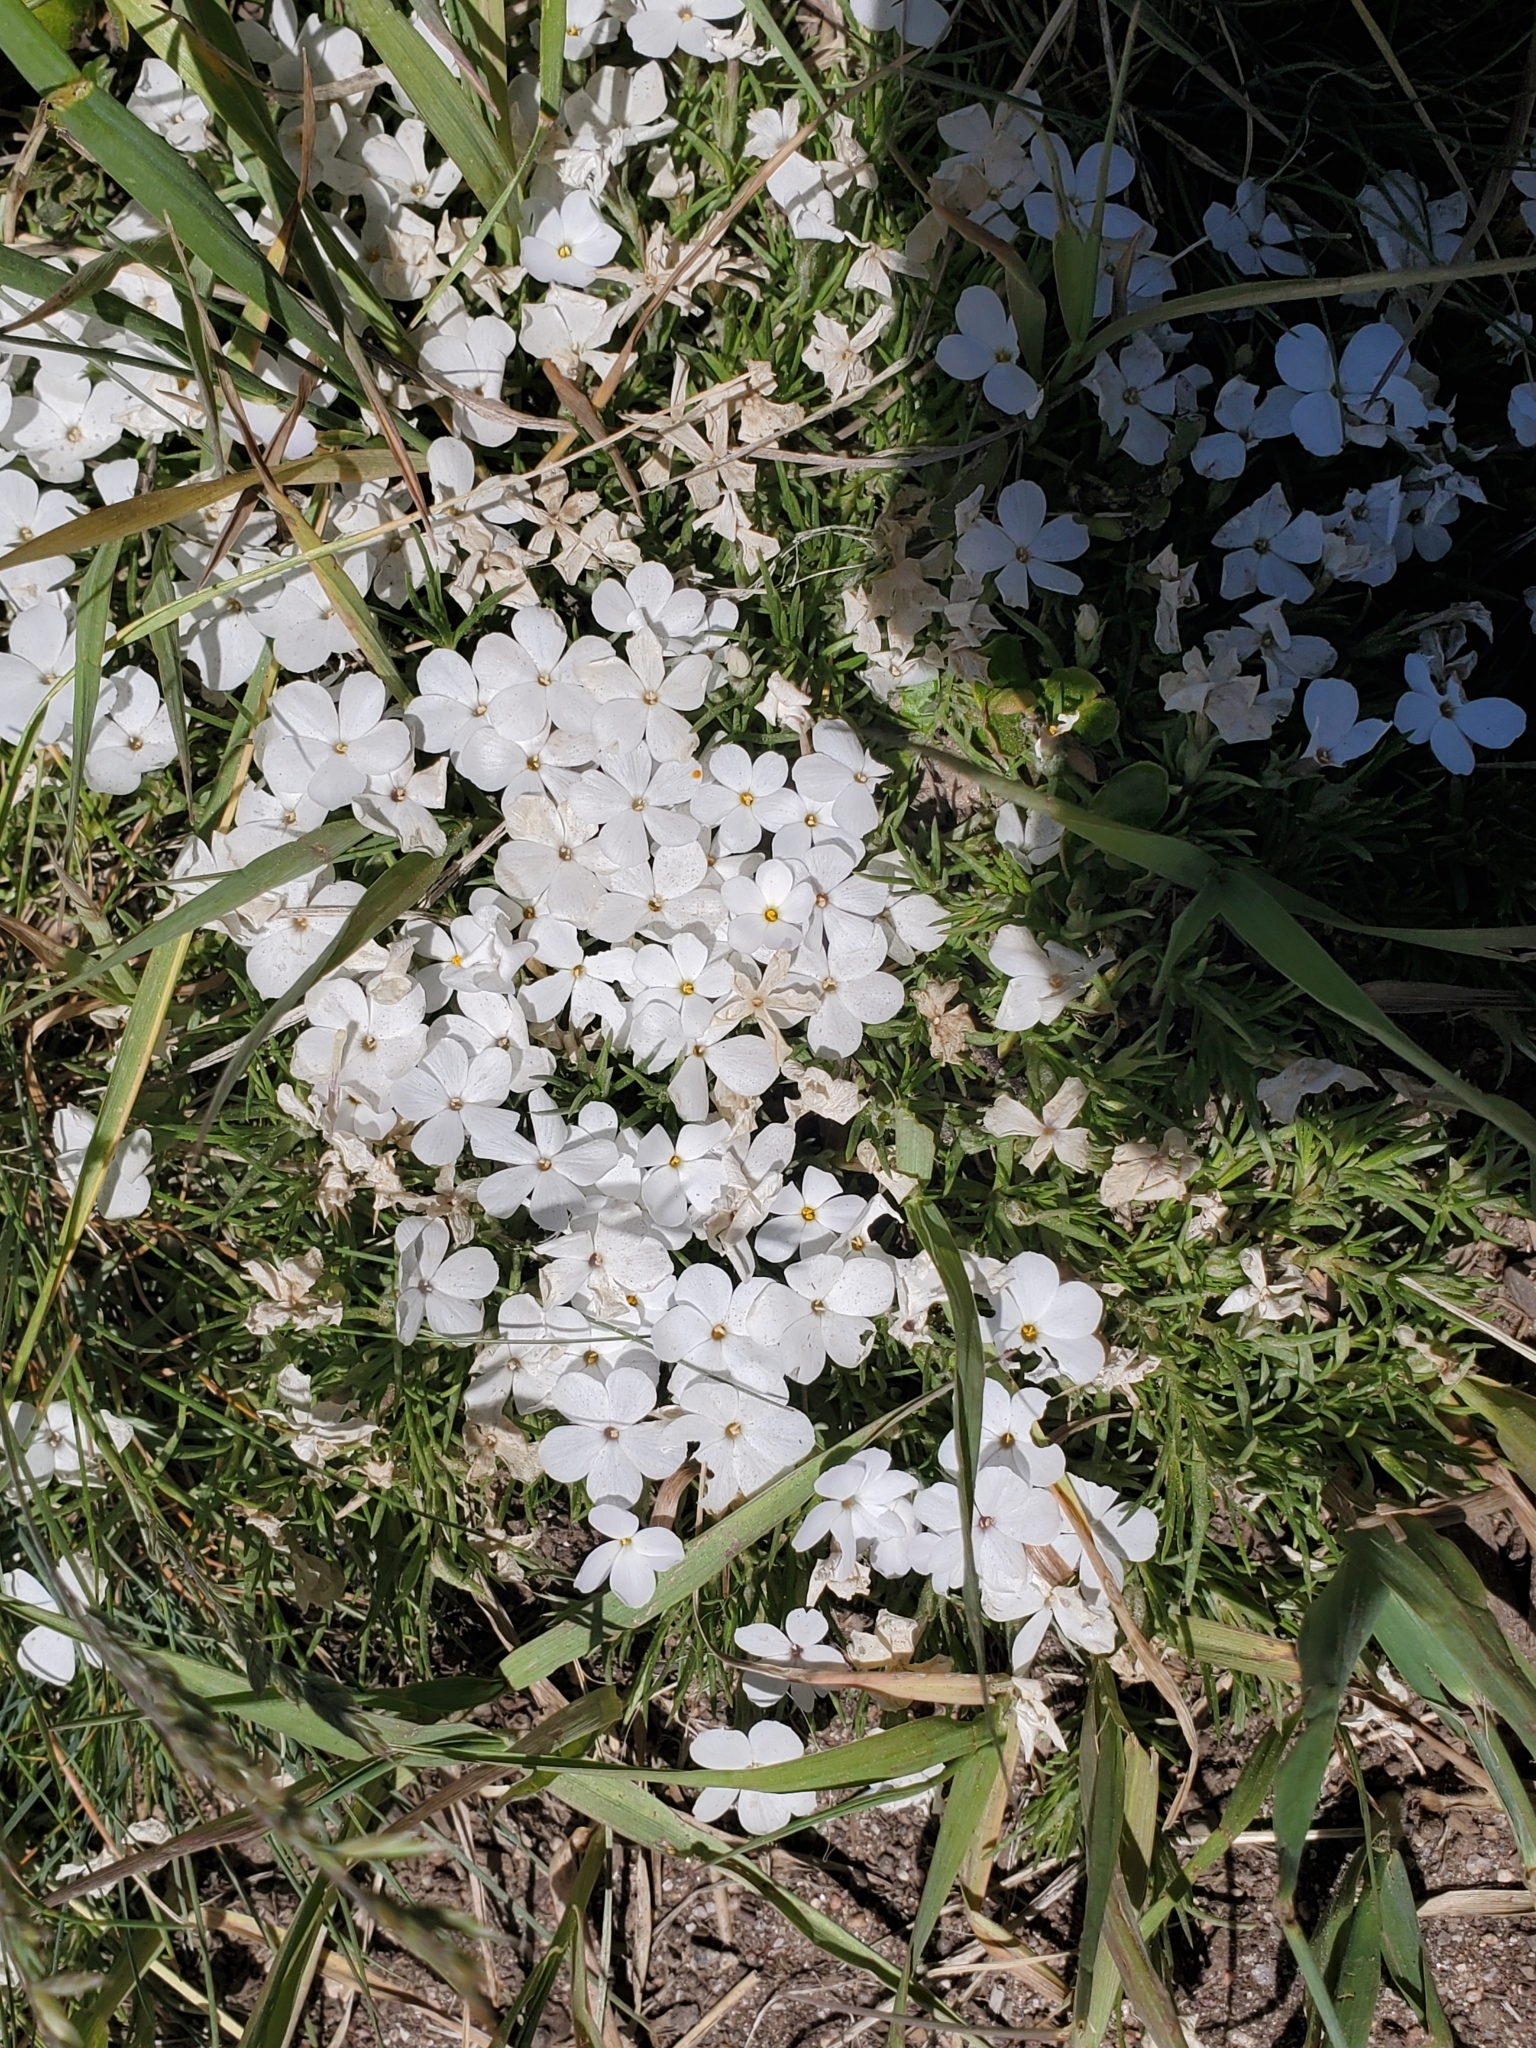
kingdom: Plantae
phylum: Tracheophyta
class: Magnoliopsida
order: Ericales
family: Polemoniaceae
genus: Phlox
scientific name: Phlox multiflora
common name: Rocky mountain phlox
